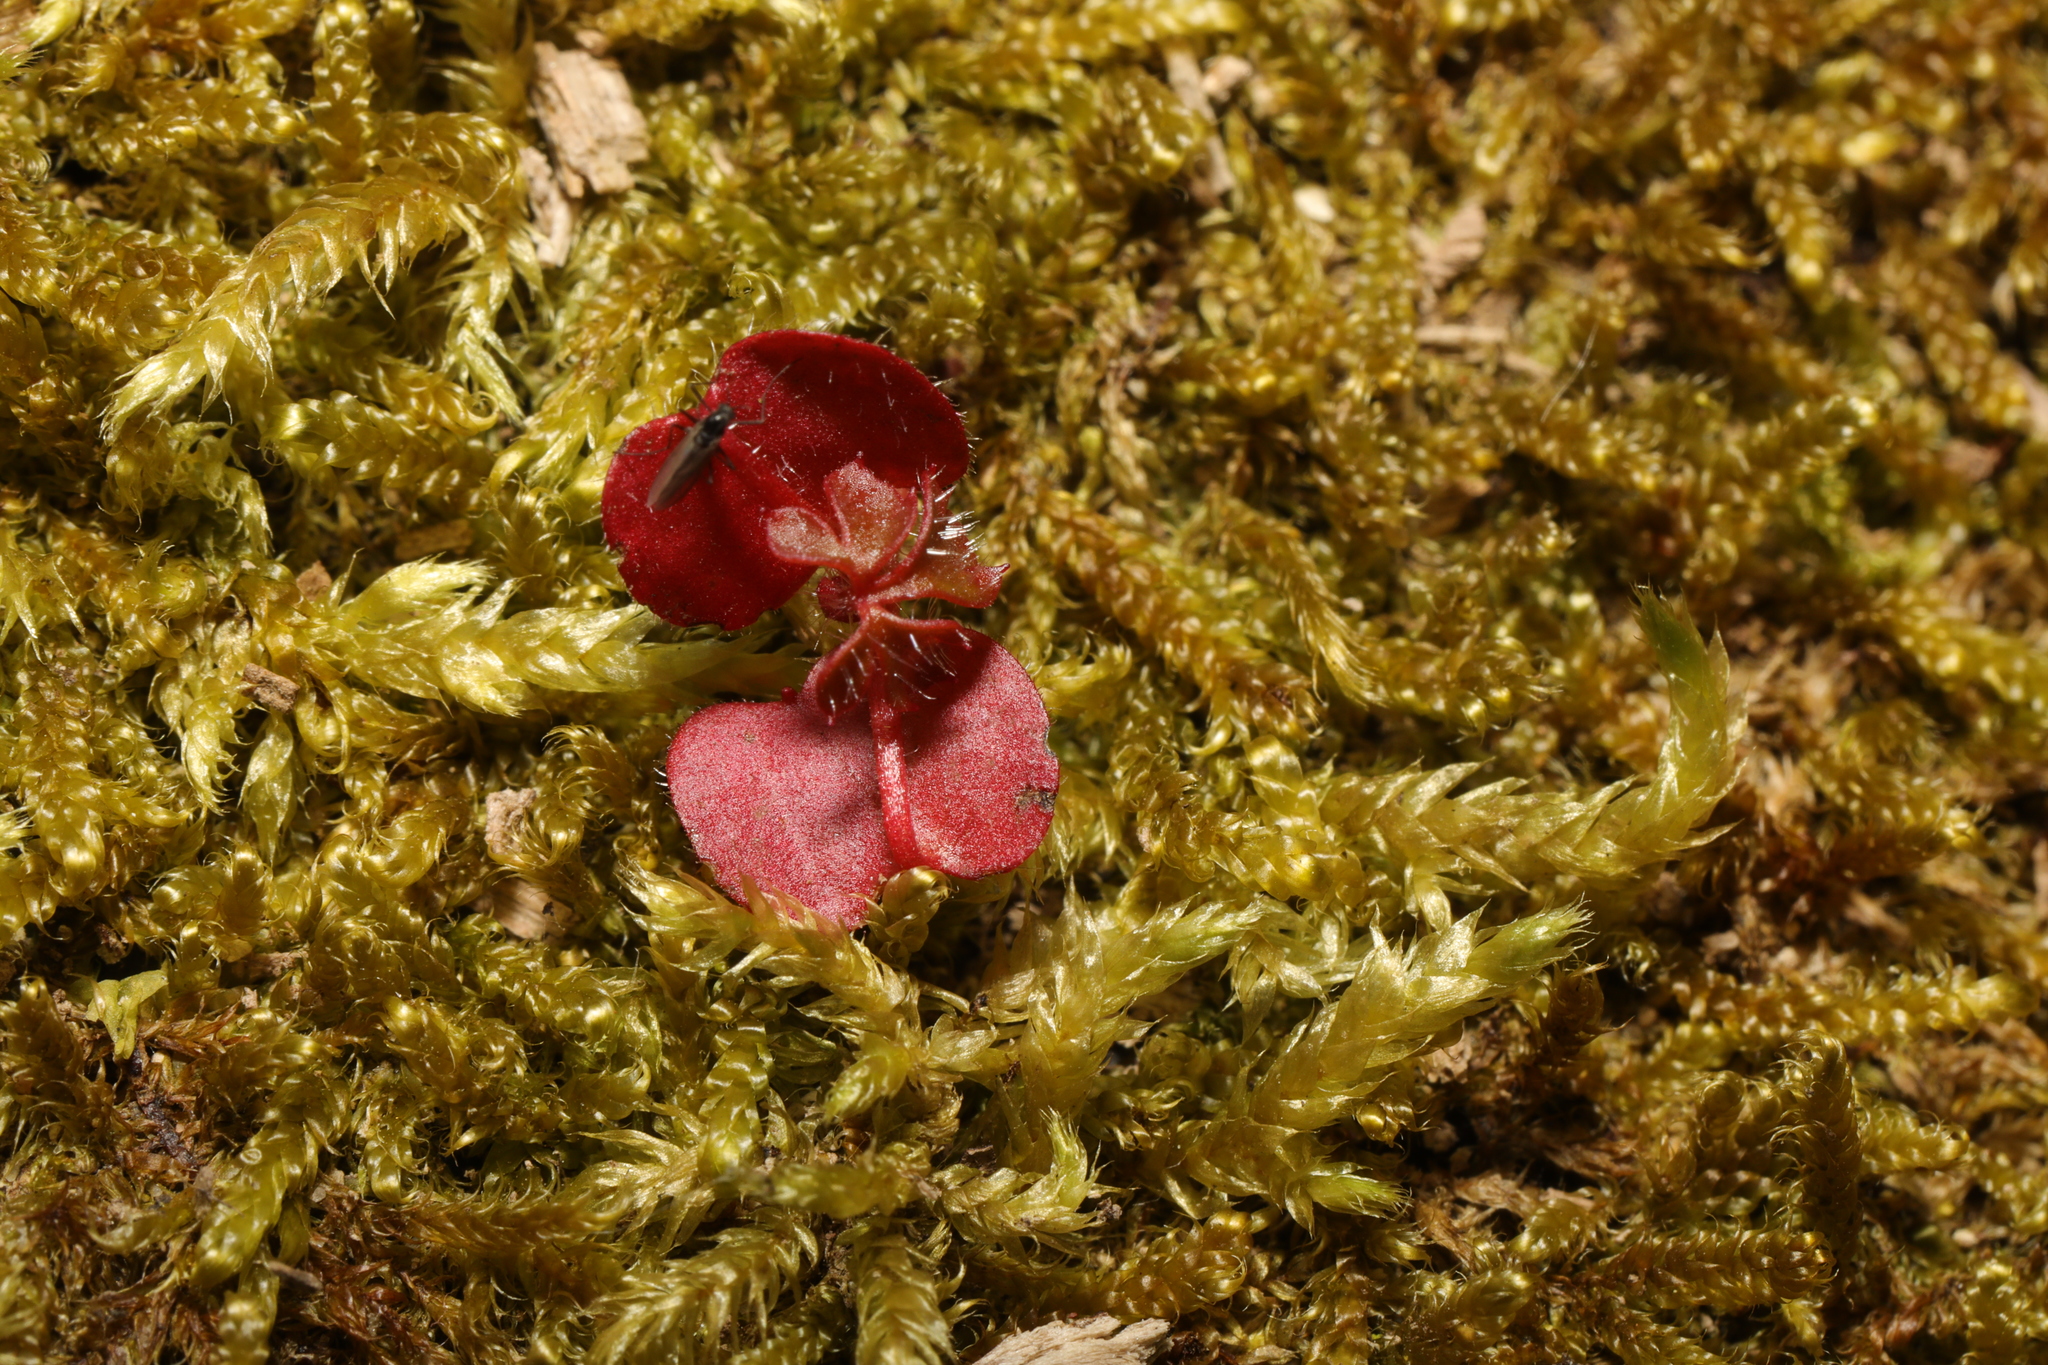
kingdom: Plantae
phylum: Tracheophyta
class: Magnoliopsida
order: Geraniales
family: Geraniaceae
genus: Geranium
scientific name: Geranium robertianum
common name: Herb-robert
